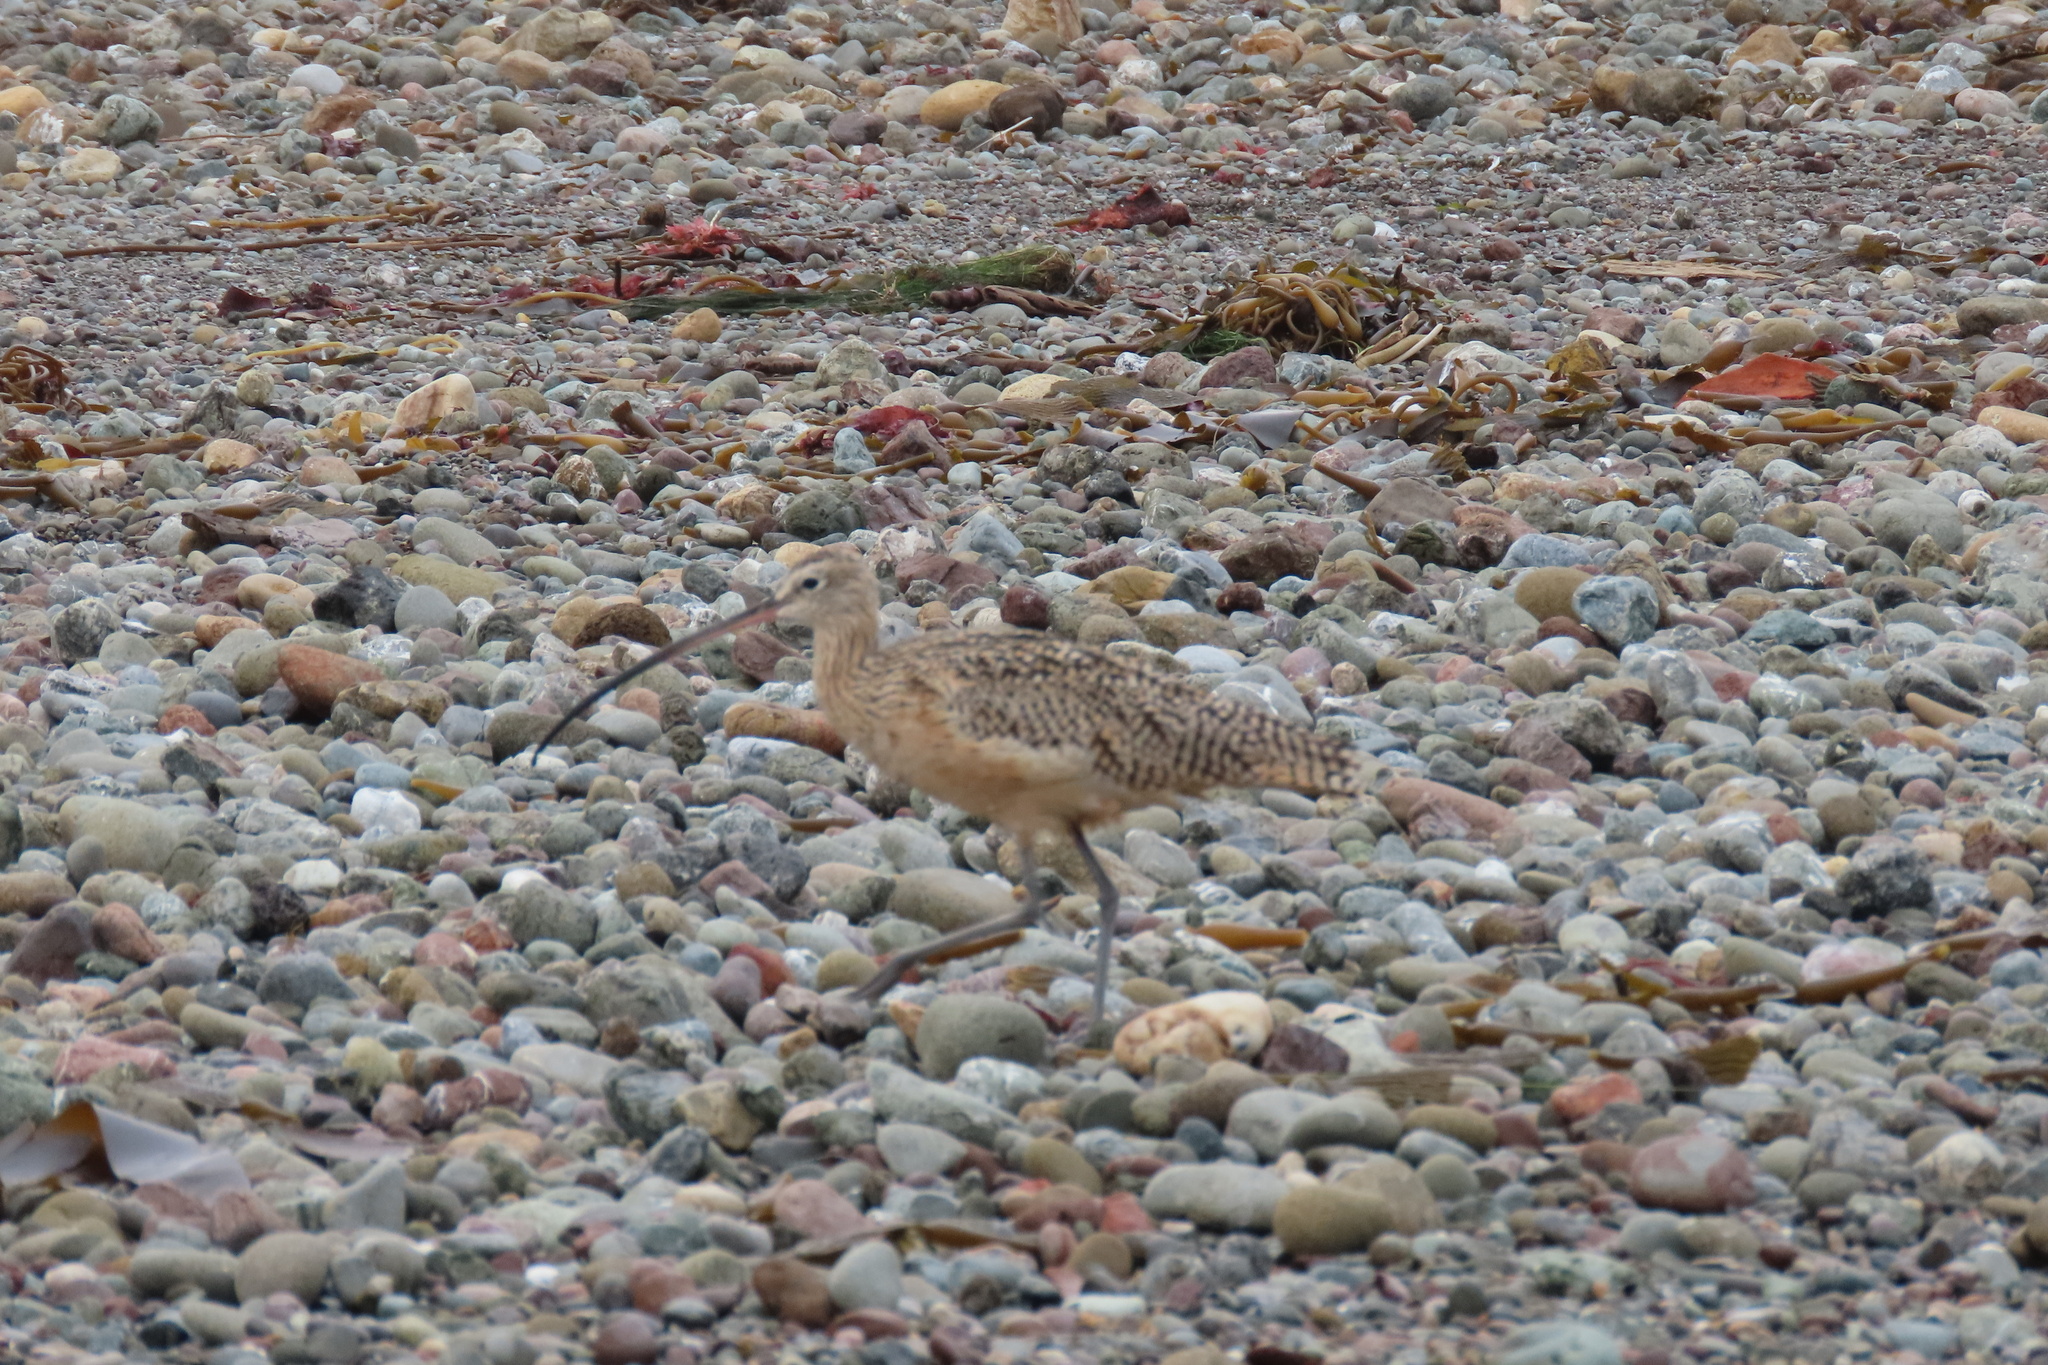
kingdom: Animalia
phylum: Chordata
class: Aves
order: Charadriiformes
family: Scolopacidae
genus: Numenius
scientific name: Numenius americanus
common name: Long-billed curlew
